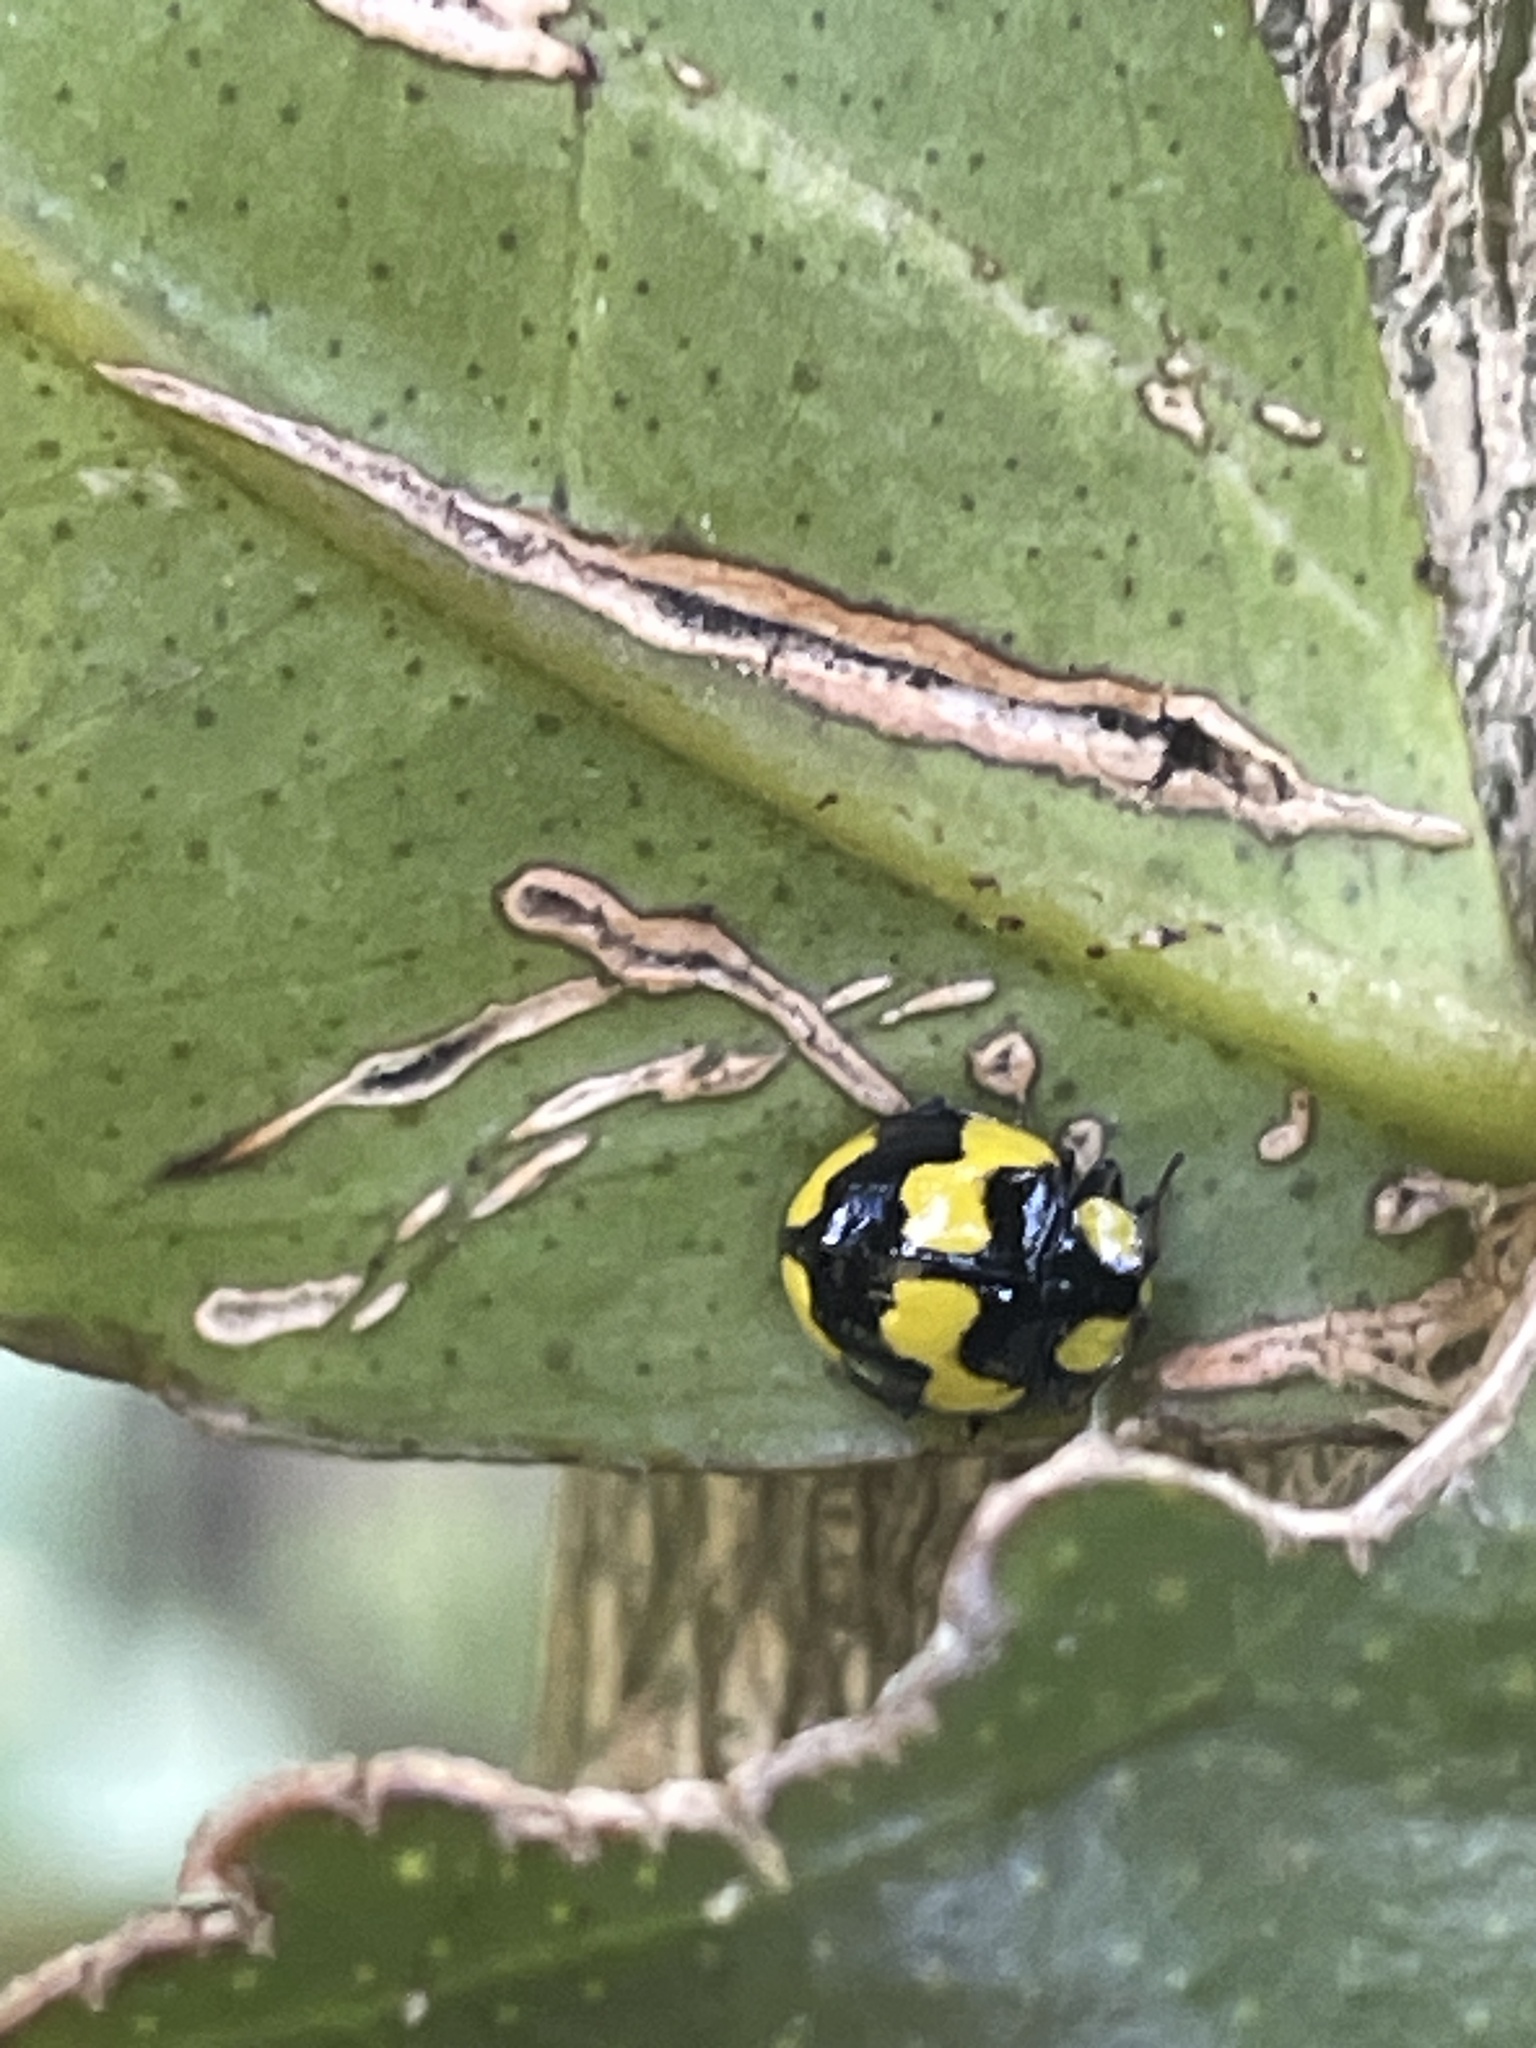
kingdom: Animalia
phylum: Arthropoda
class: Insecta
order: Coleoptera
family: Coccinellidae
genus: Illeis
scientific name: Illeis galbula
